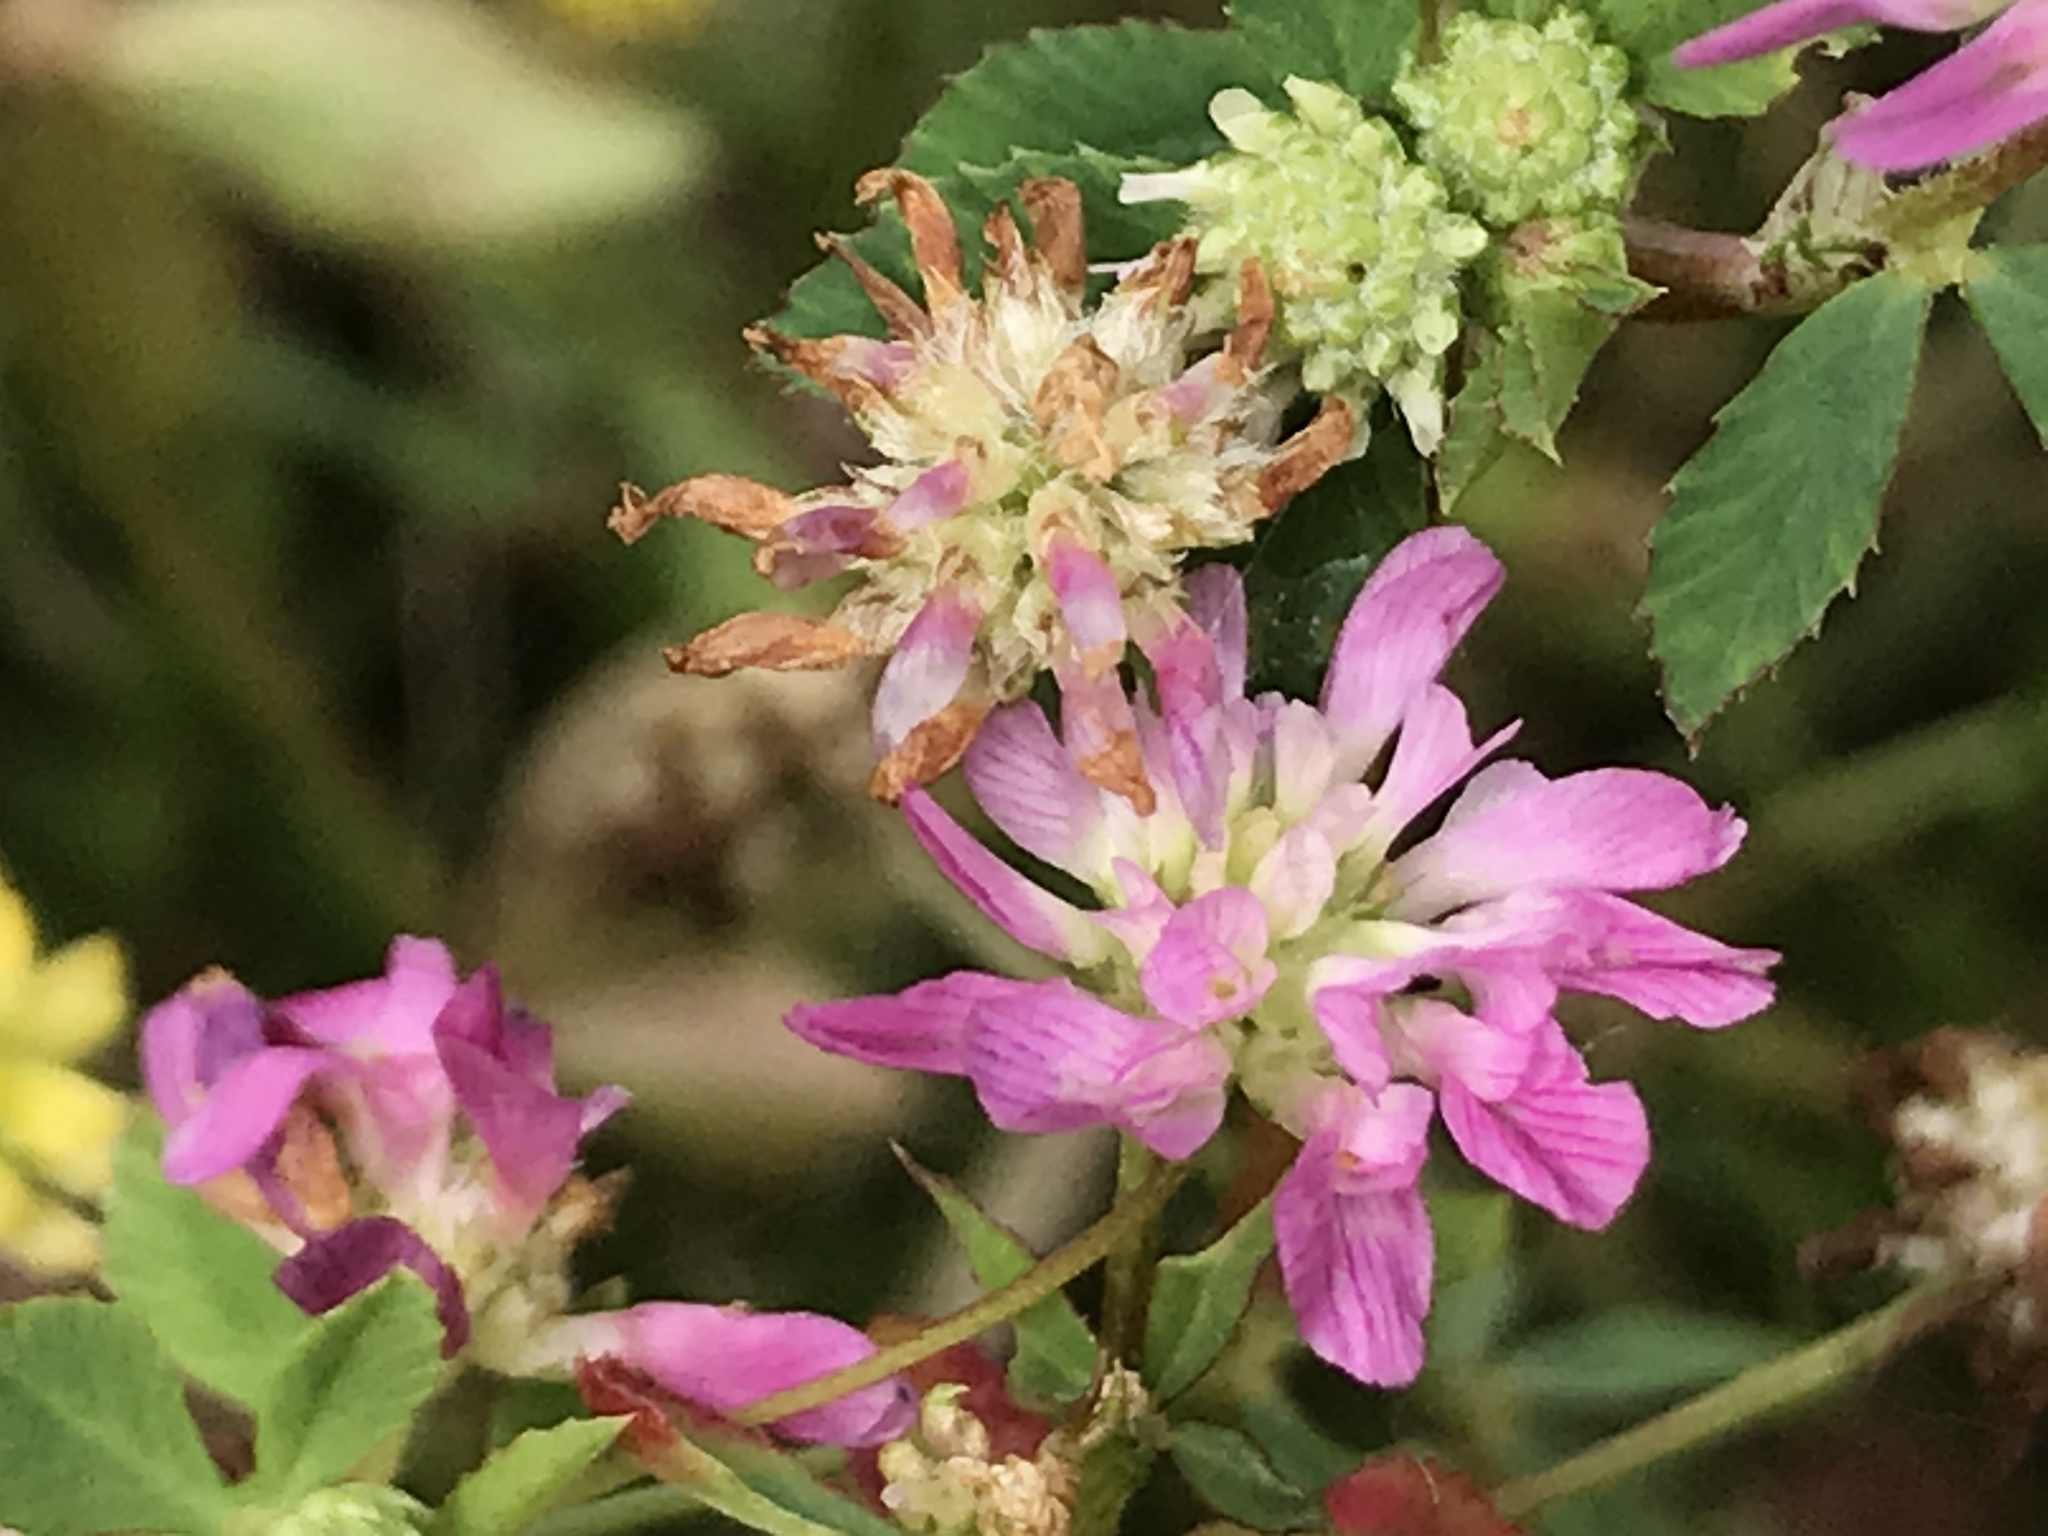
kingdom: Plantae
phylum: Tracheophyta
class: Magnoliopsida
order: Fabales
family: Fabaceae
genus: Trifolium
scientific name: Trifolium resupinatum
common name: Reversed clover
